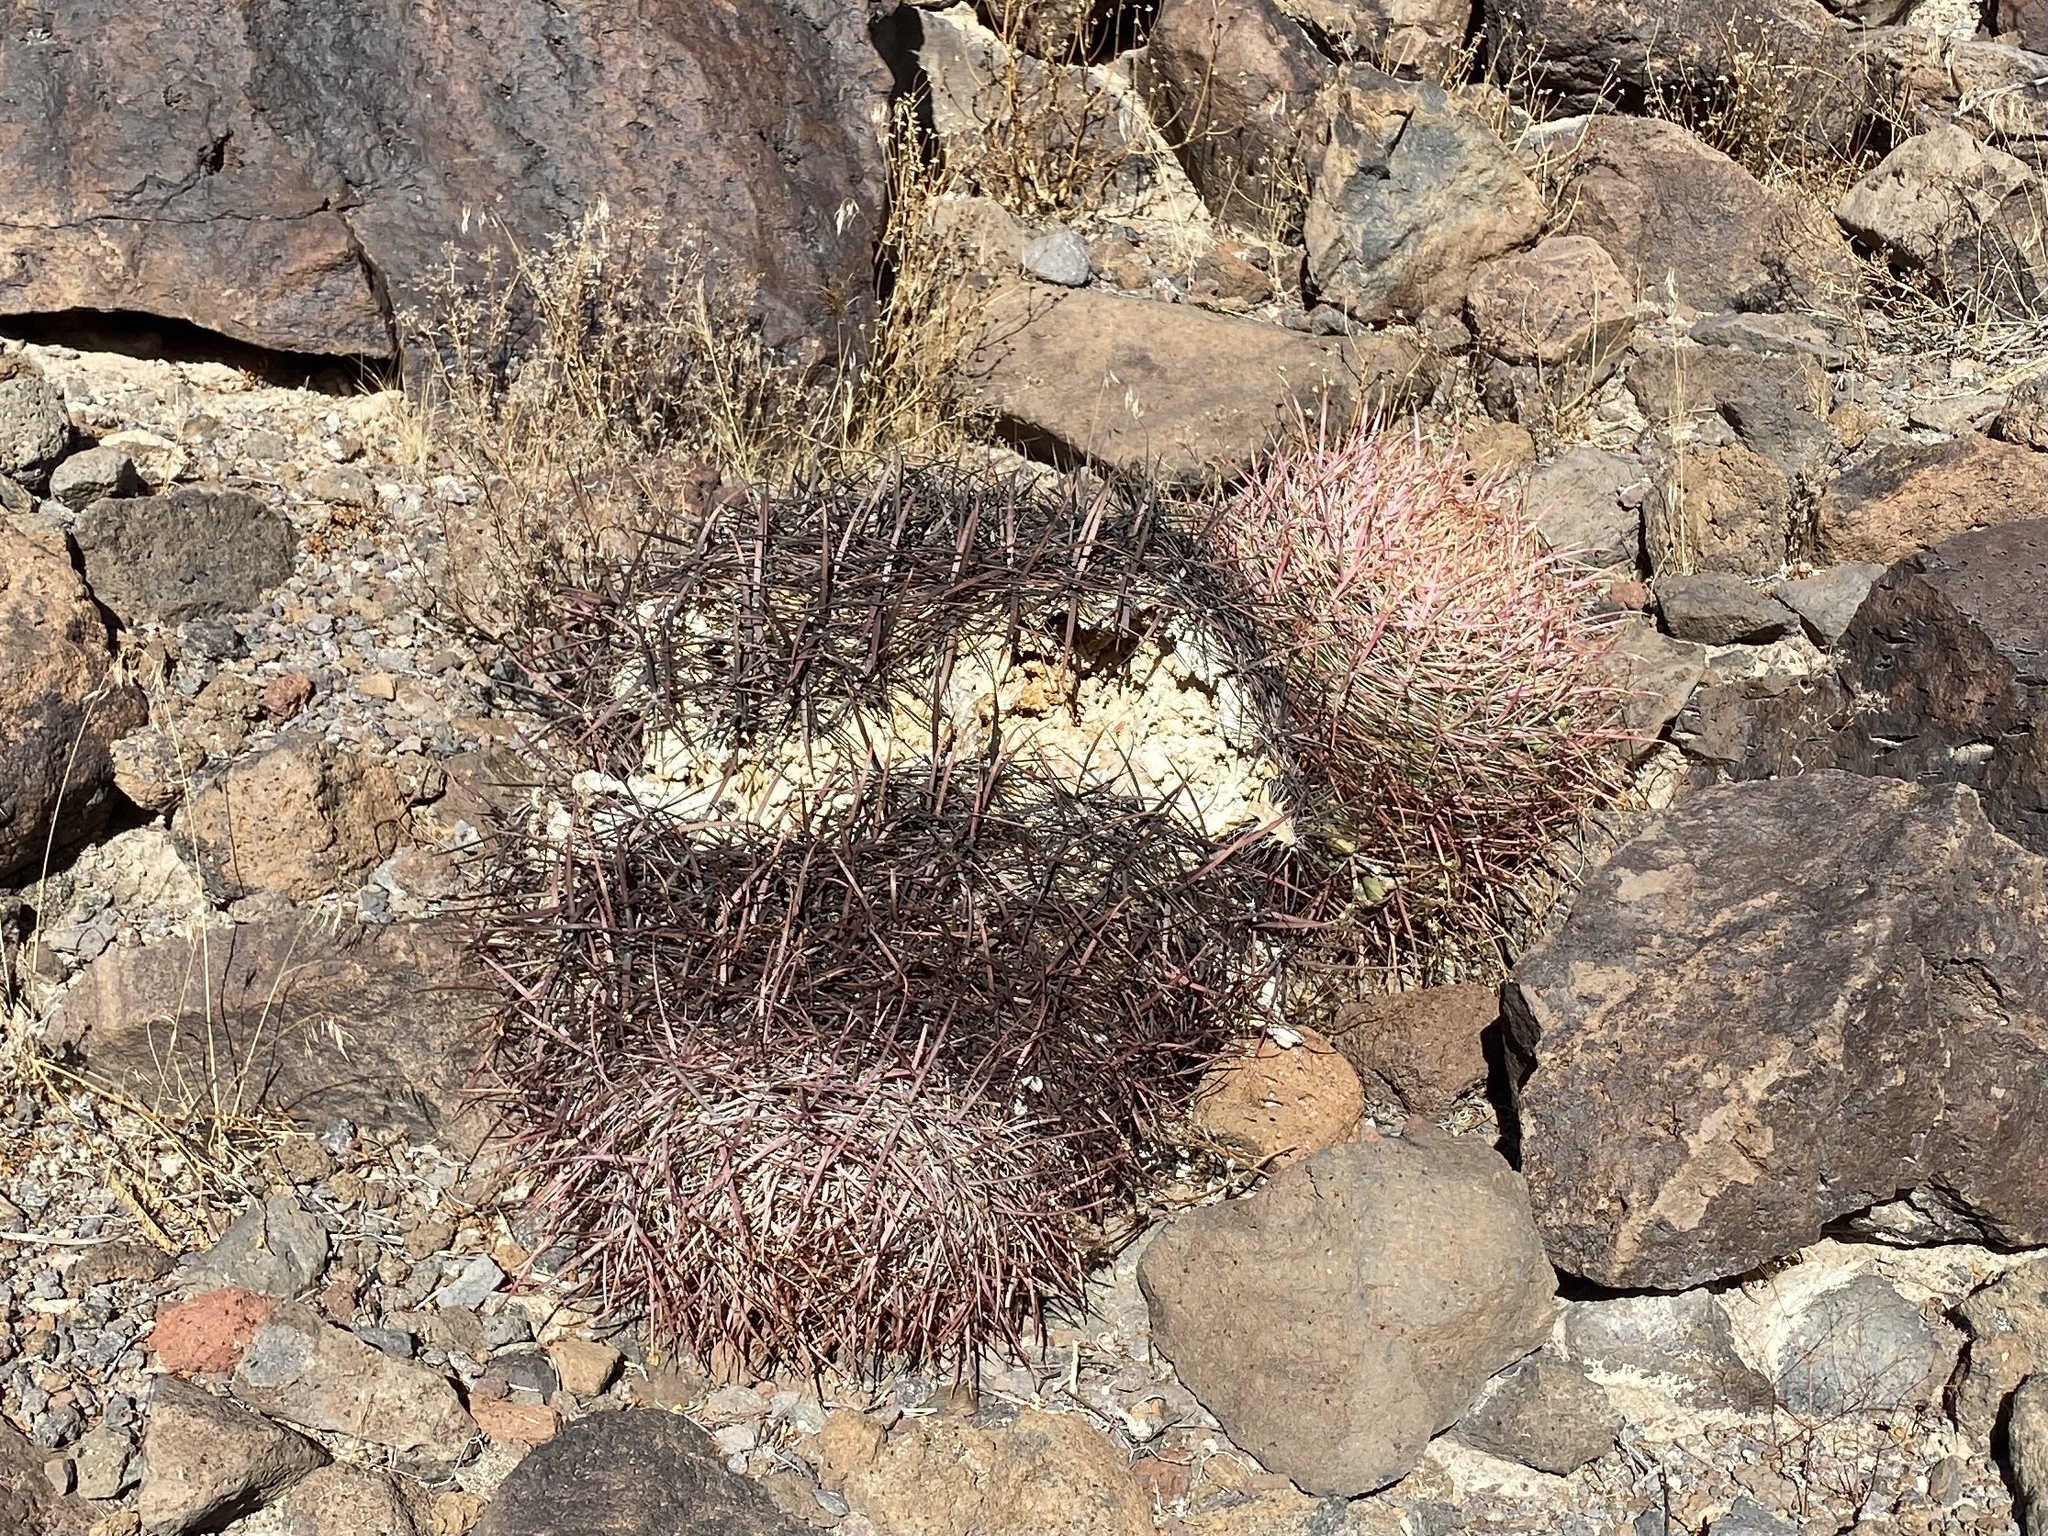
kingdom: Plantae
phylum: Tracheophyta
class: Magnoliopsida
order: Caryophyllales
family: Cactaceae
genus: Ferocactus
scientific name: Ferocactus cylindraceus
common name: California barrel cactus
